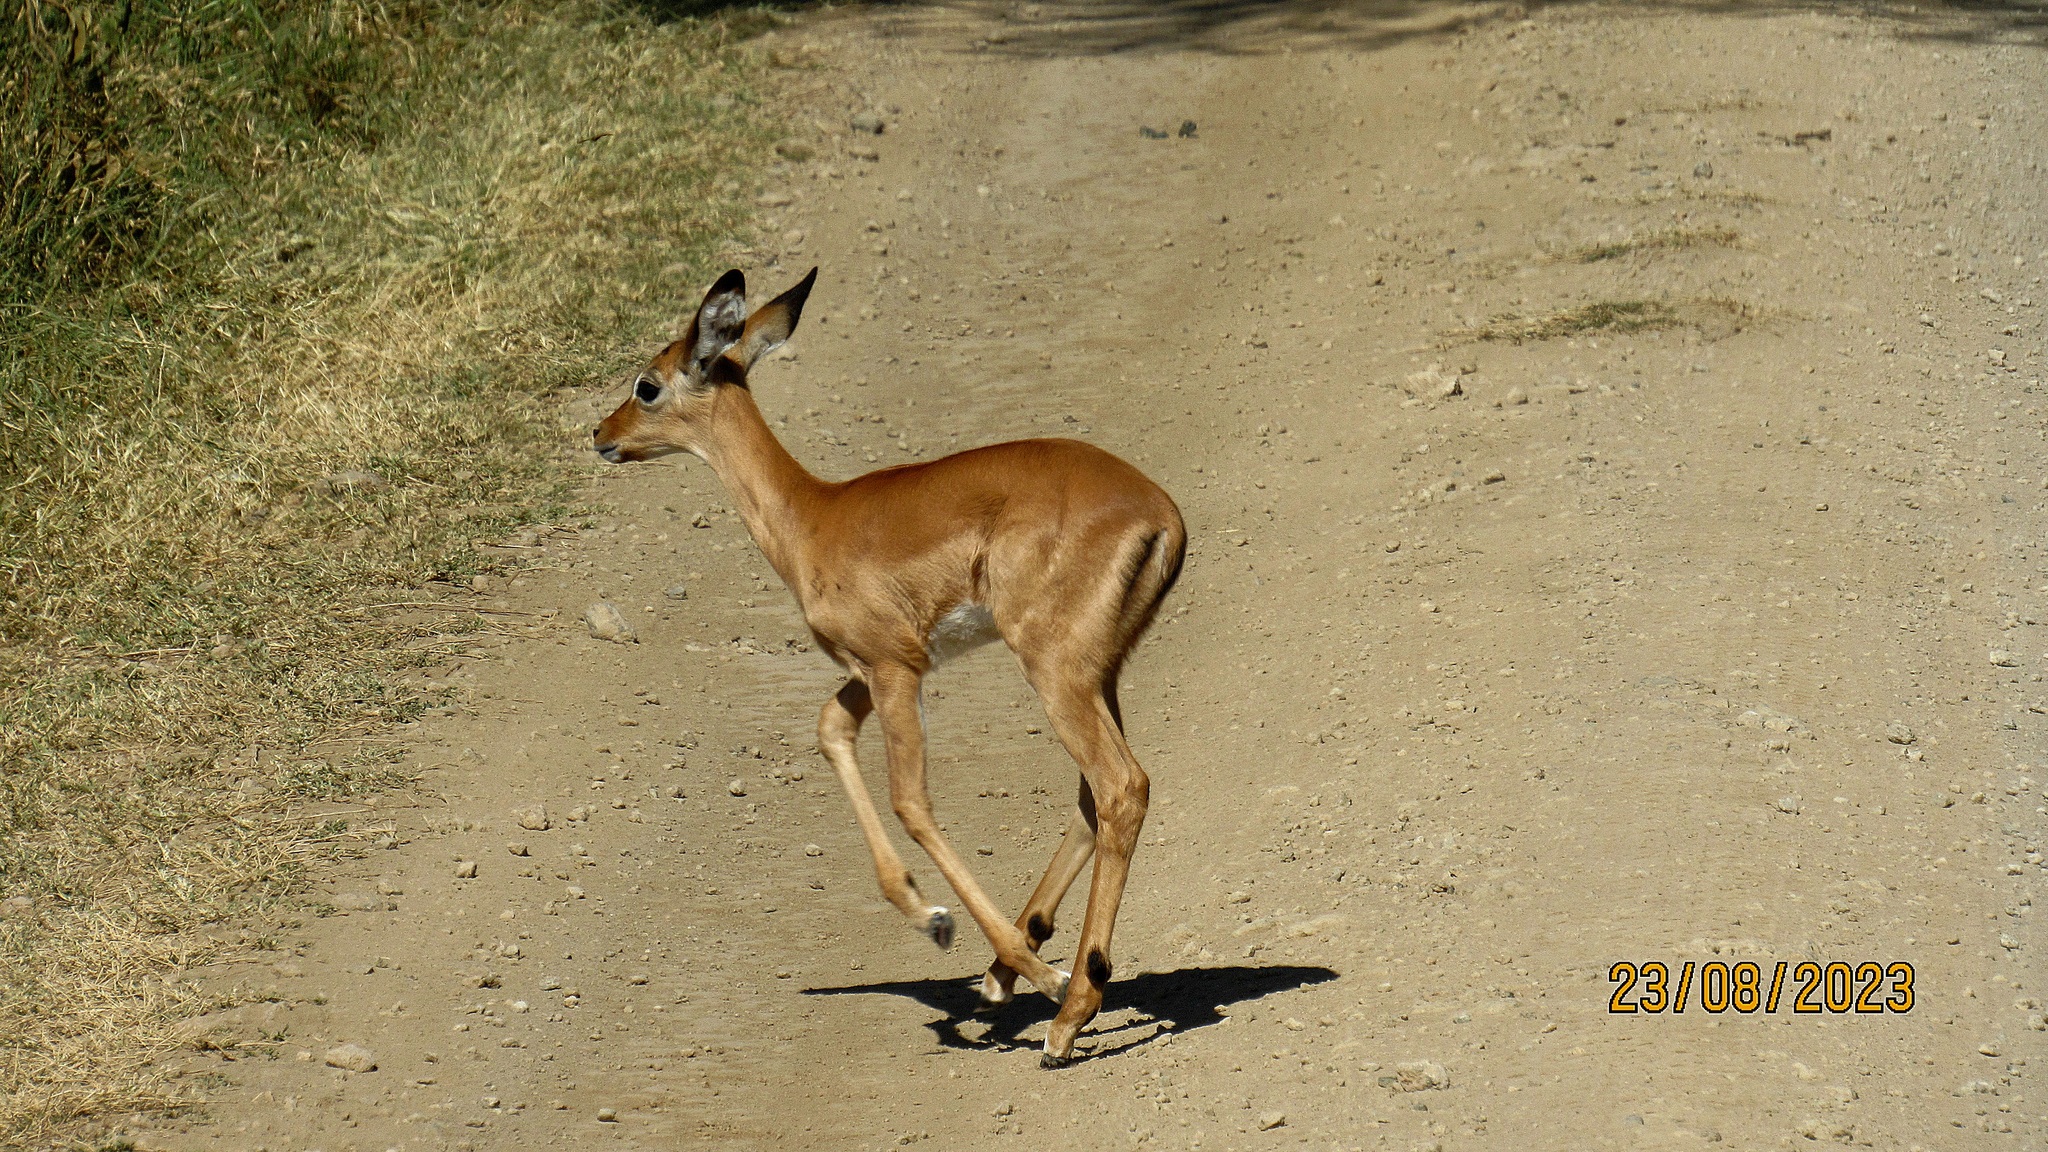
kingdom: Animalia
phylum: Chordata
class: Mammalia
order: Artiodactyla
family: Bovidae
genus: Aepyceros
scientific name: Aepyceros melampus
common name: Impala
